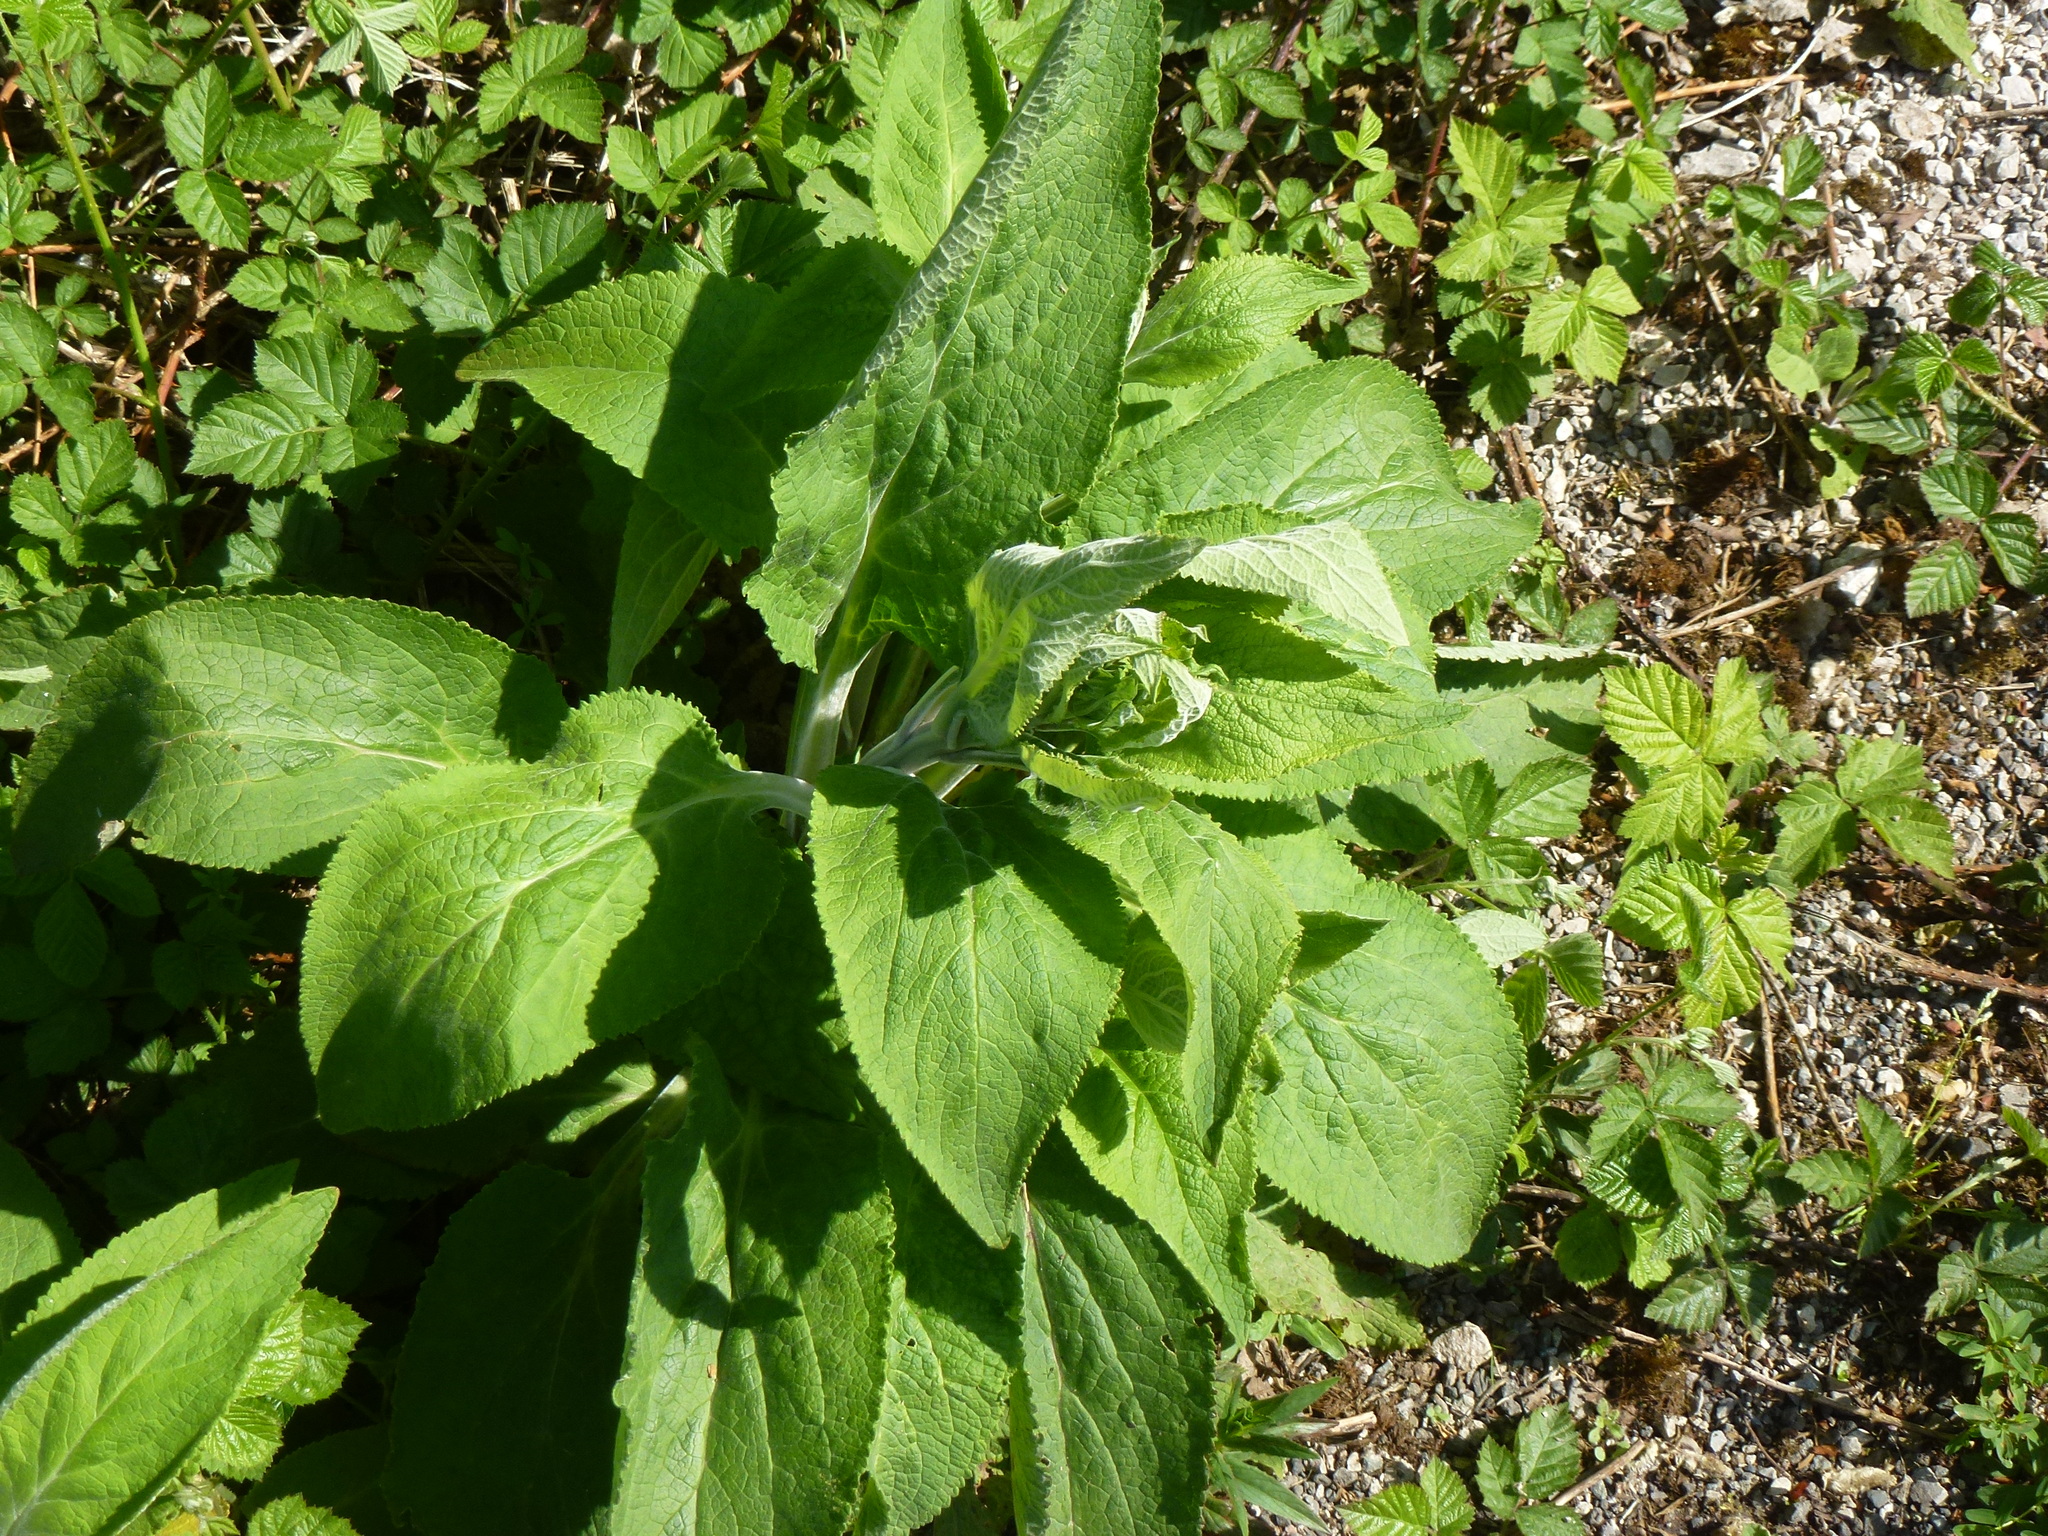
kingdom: Plantae
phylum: Tracheophyta
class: Magnoliopsida
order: Lamiales
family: Plantaginaceae
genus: Digitalis
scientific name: Digitalis purpurea
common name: Foxglove
